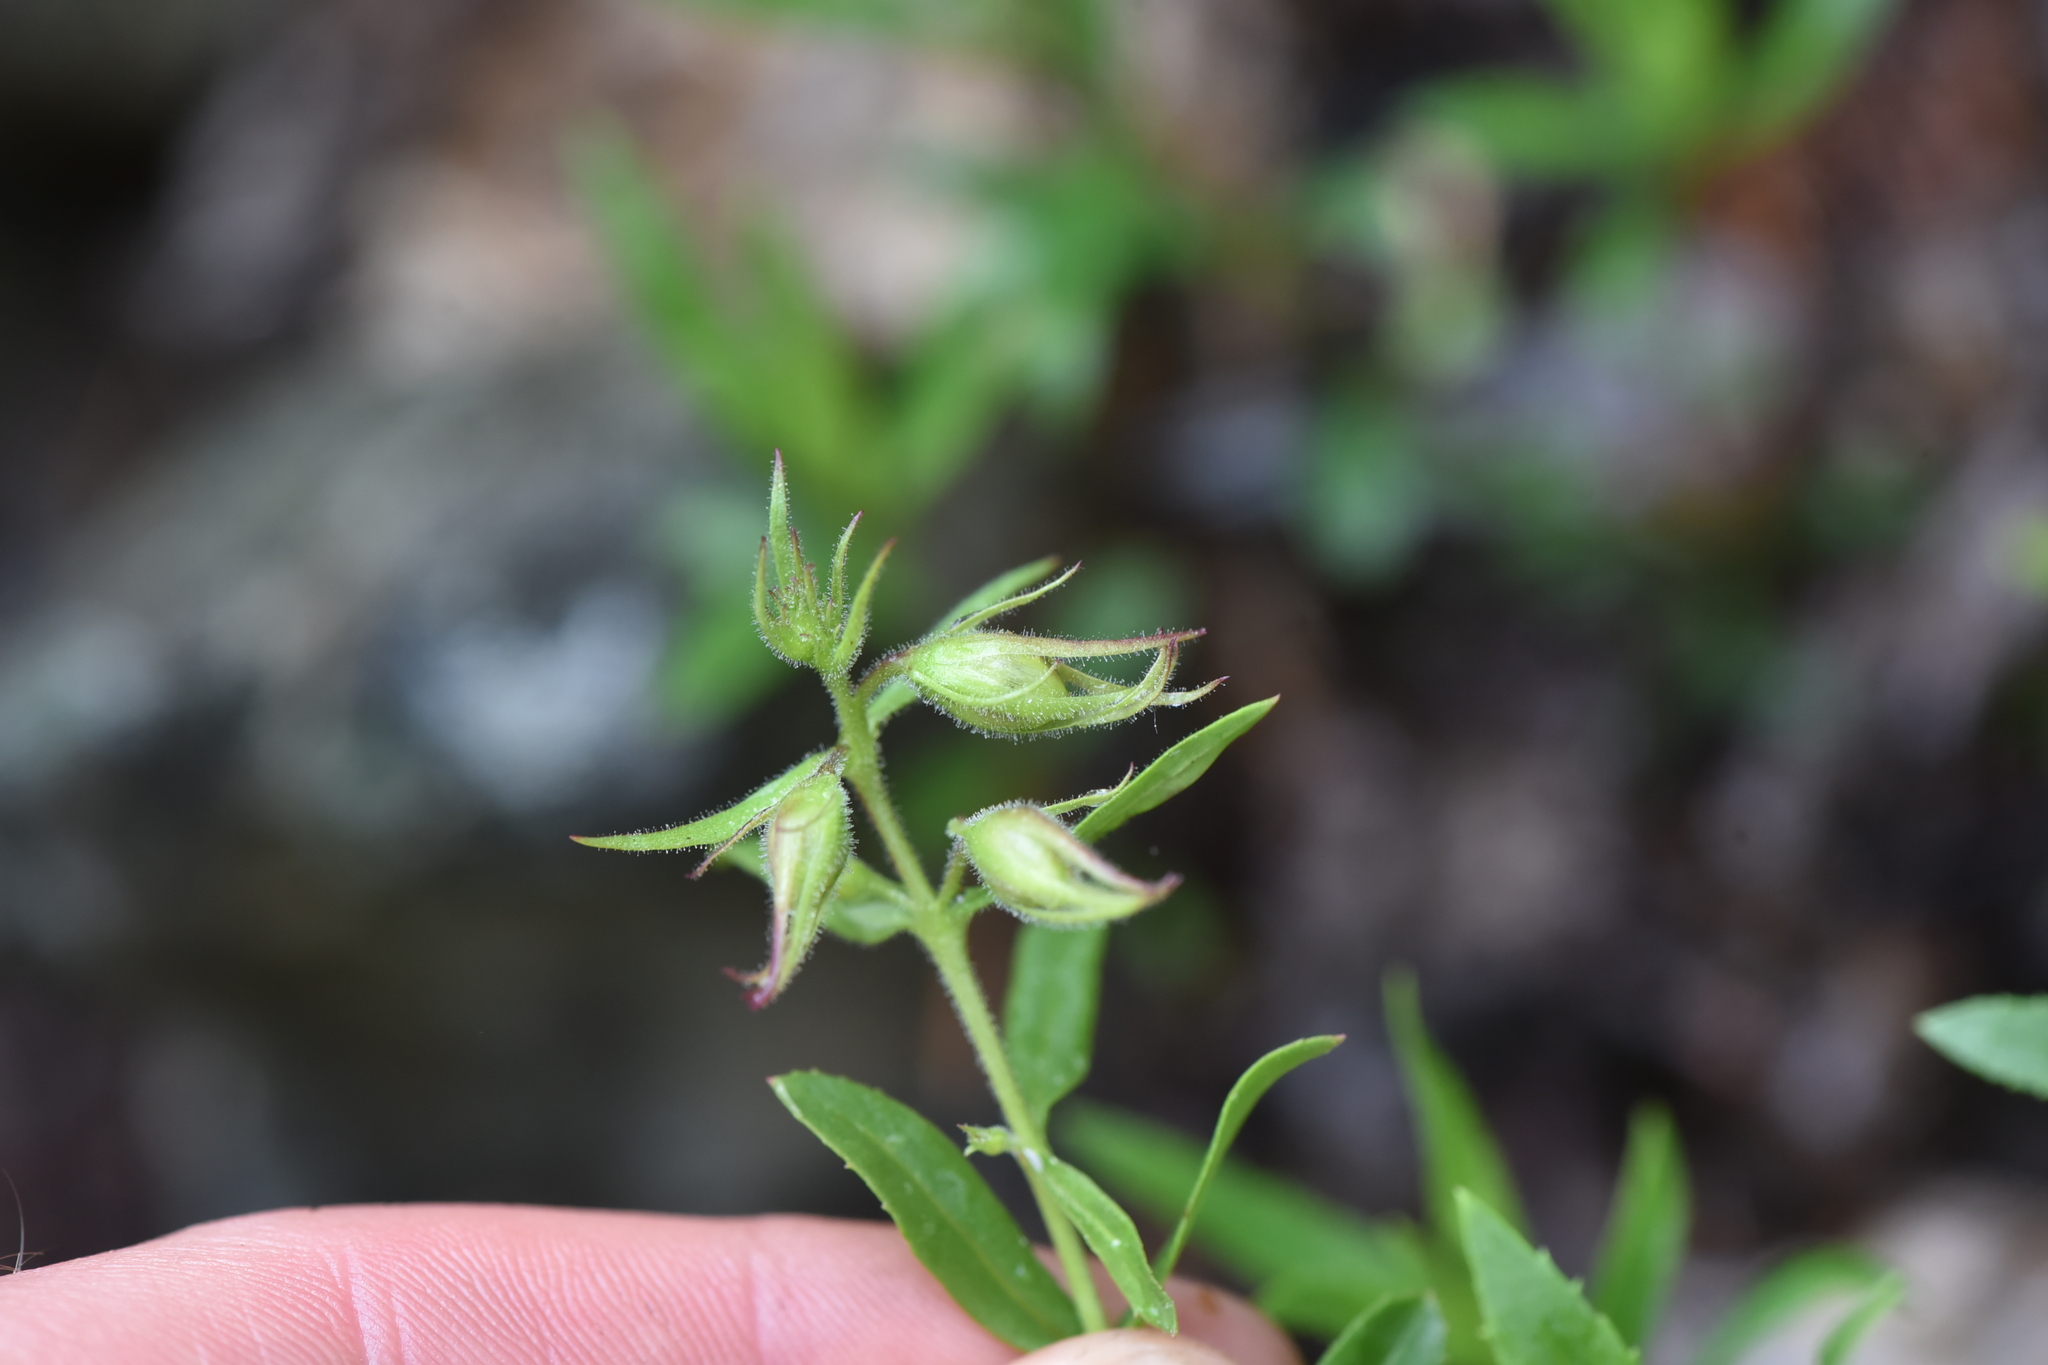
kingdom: Plantae
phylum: Tracheophyta
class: Magnoliopsida
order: Lamiales
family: Plantaginaceae
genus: Penstemon
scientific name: Penstemon fruticosus
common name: Bush penstemon
